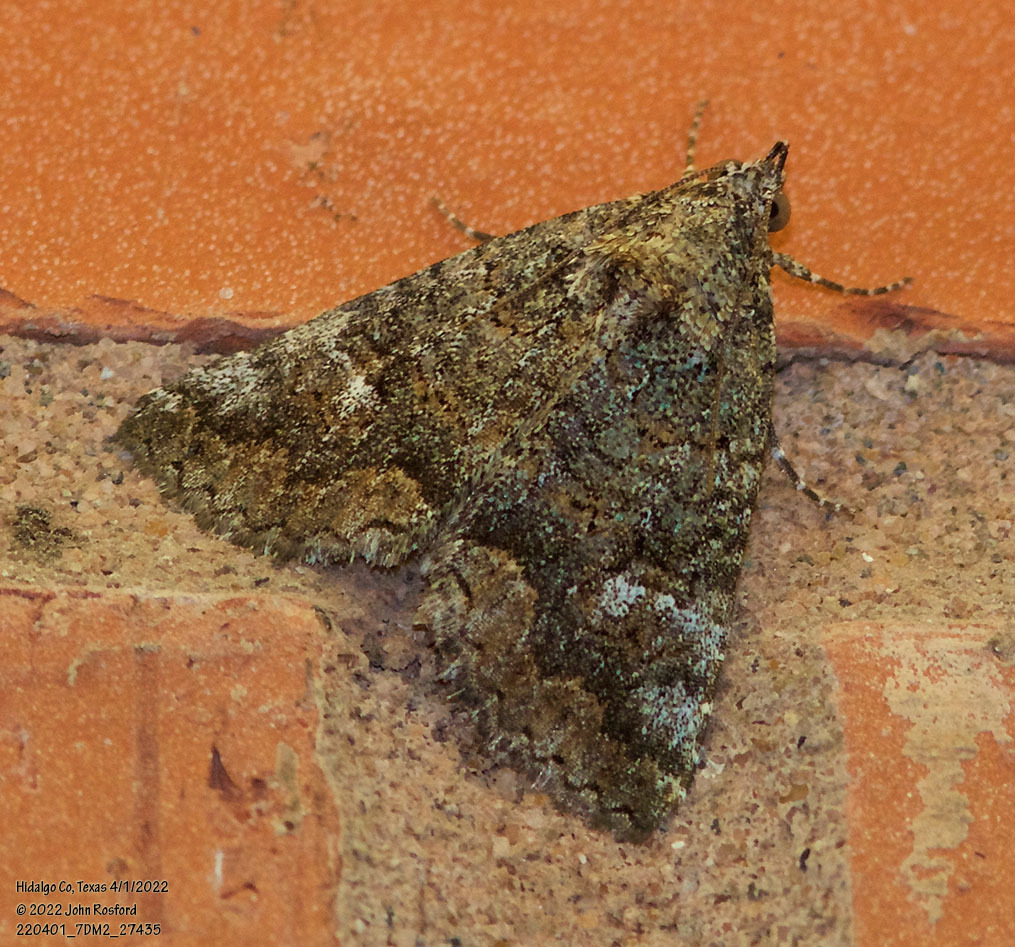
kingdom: Animalia
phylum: Arthropoda
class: Insecta
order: Lepidoptera
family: Erebidae
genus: Eubolina
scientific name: Eubolina impartialis
